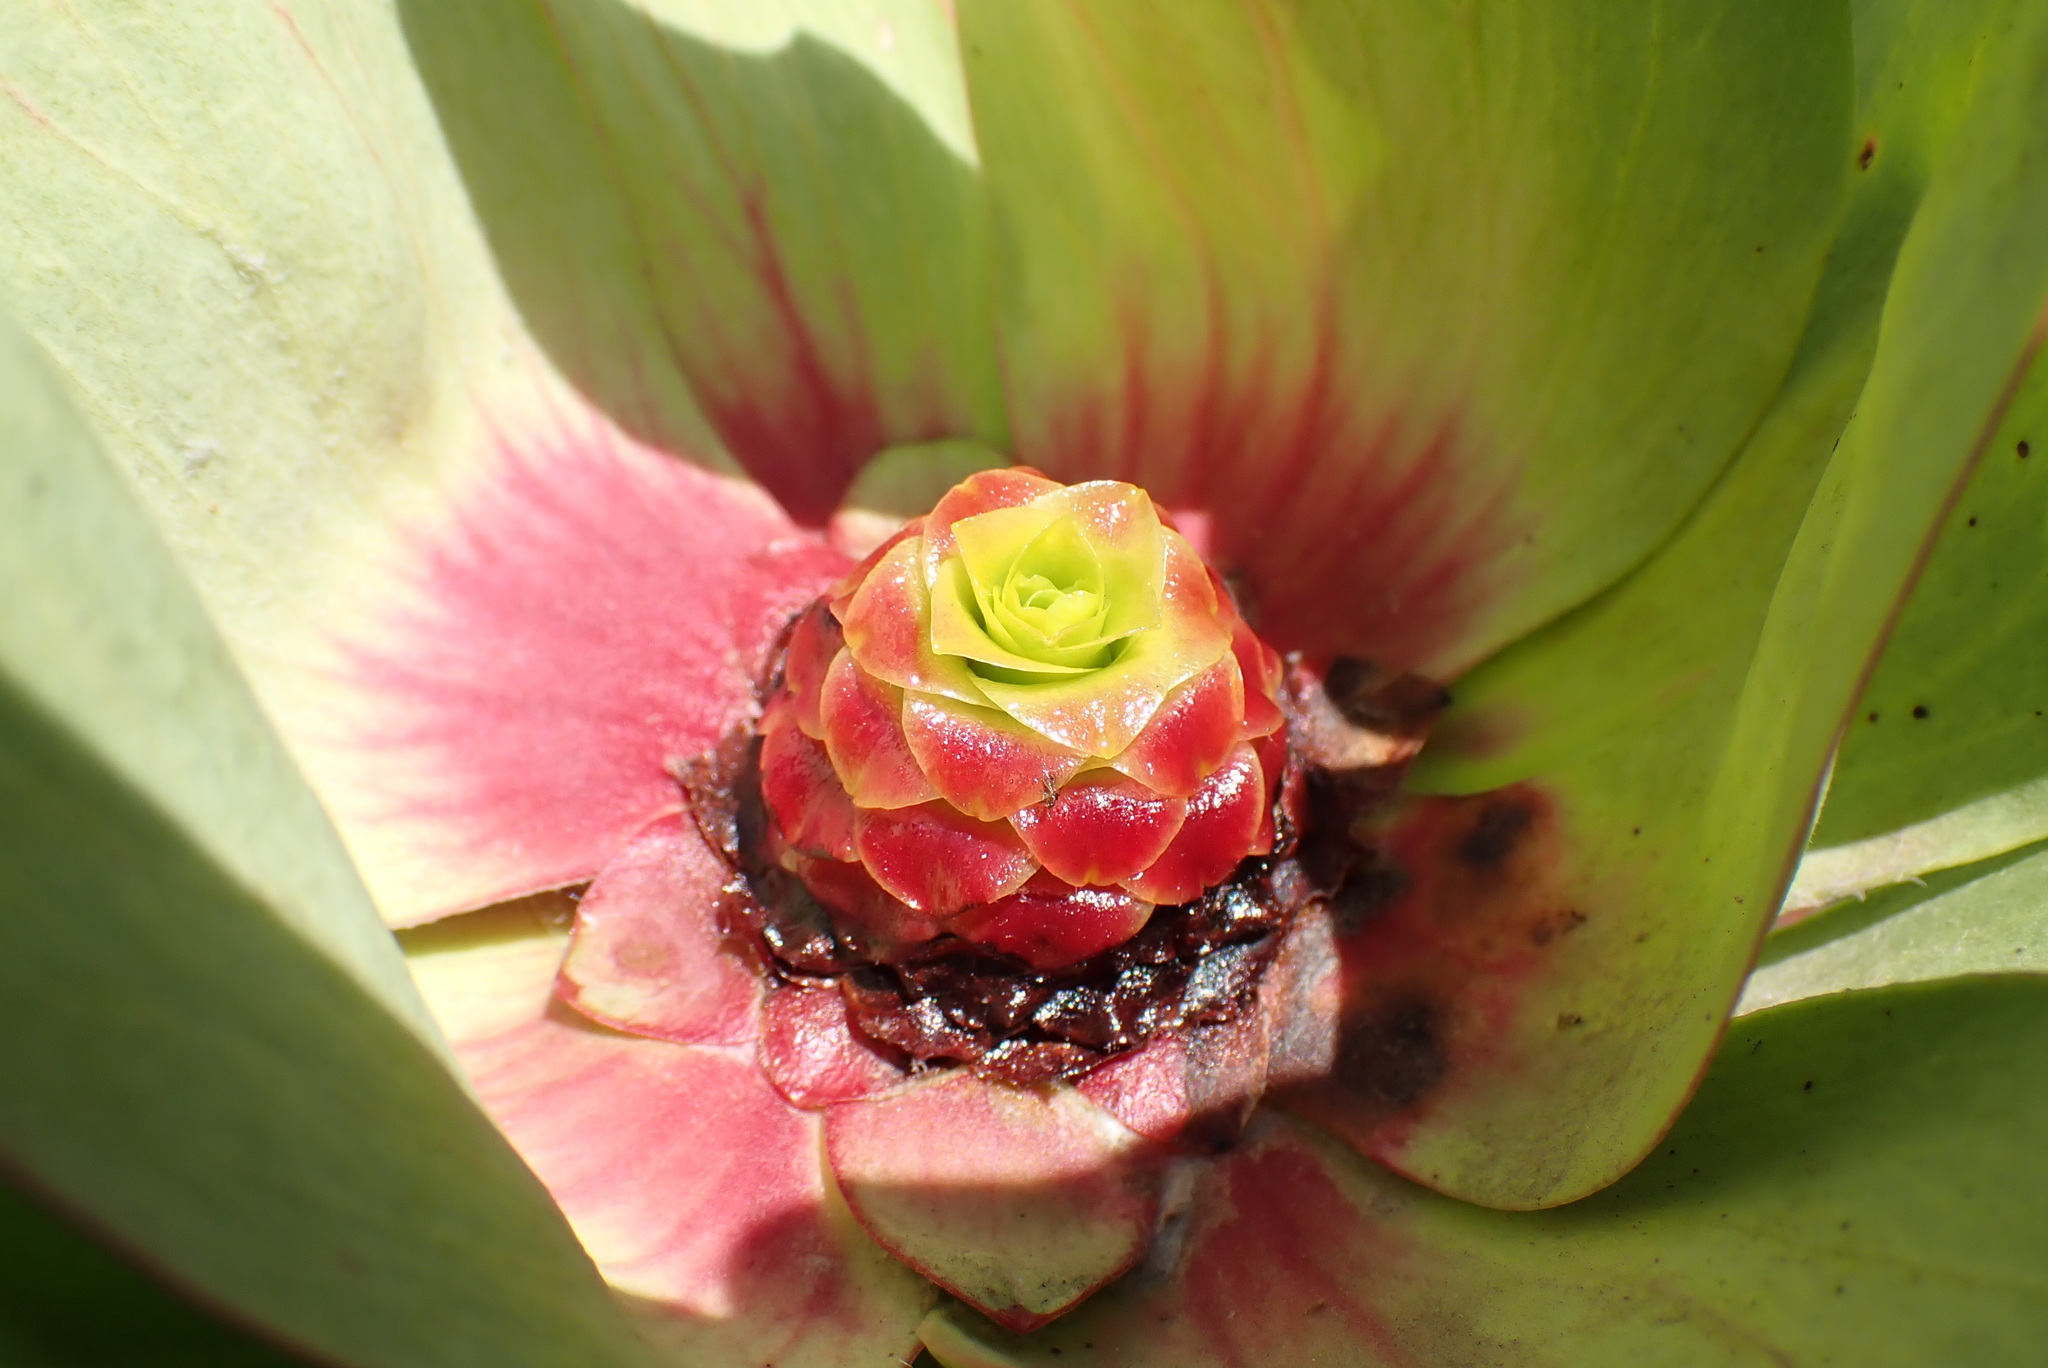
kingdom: Plantae
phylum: Tracheophyta
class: Magnoliopsida
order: Proteales
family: Proteaceae
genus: Leucadendron
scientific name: Leucadendron pubibracteolatum
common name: Purple-leaf conebush
